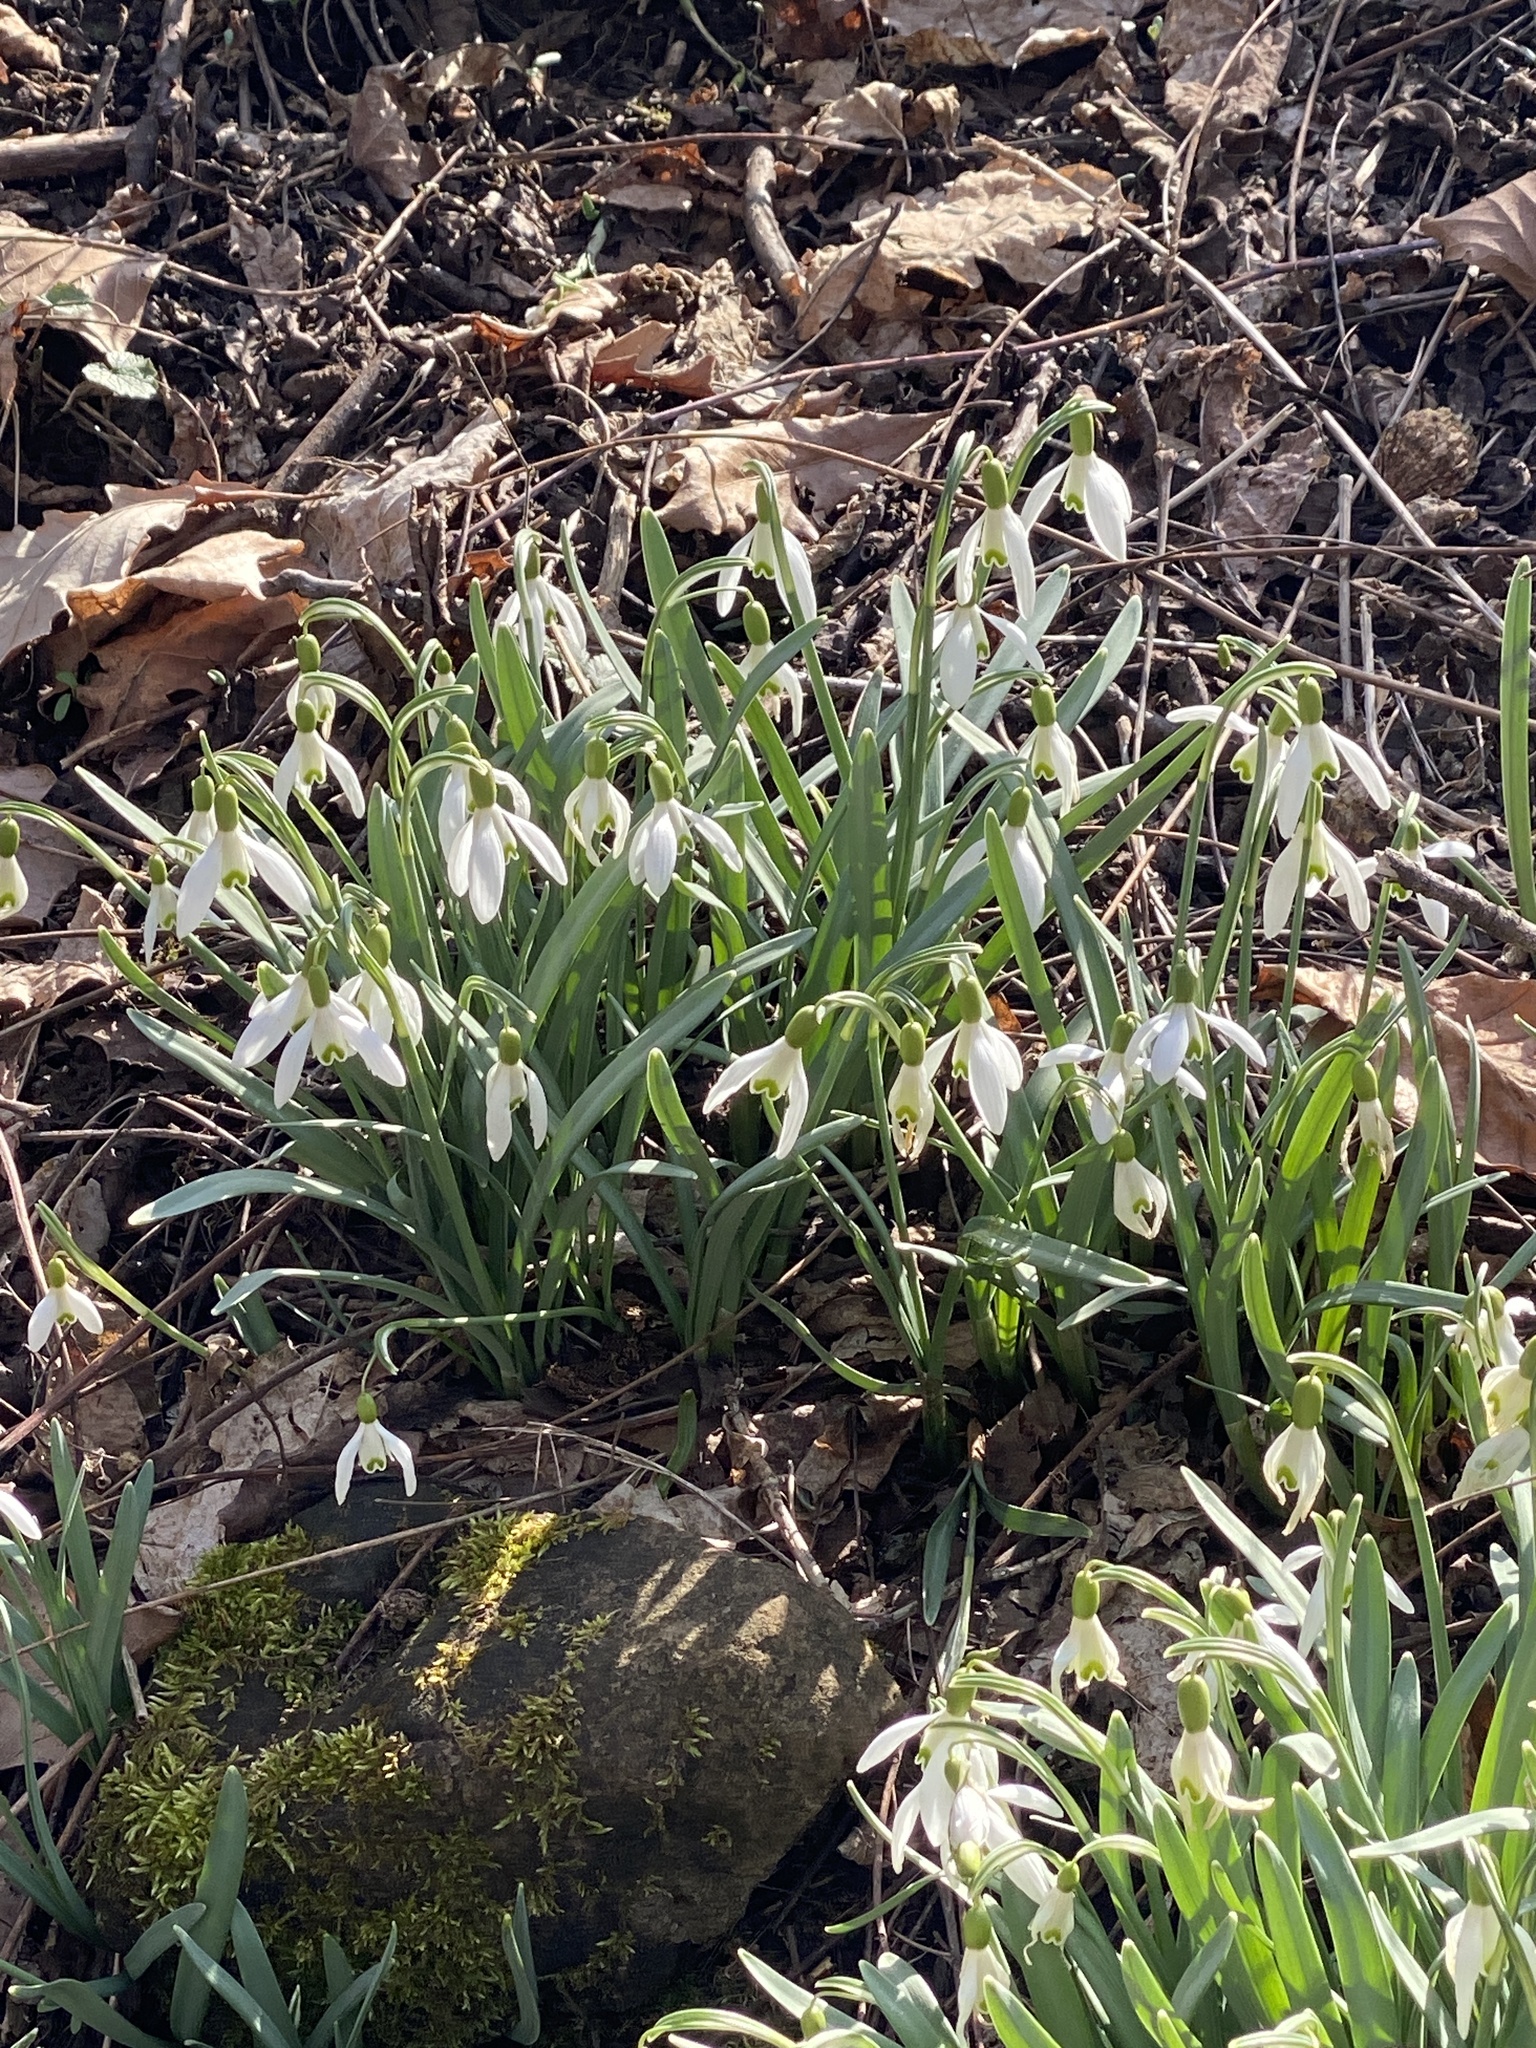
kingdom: Plantae
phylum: Tracheophyta
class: Liliopsida
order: Asparagales
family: Amaryllidaceae
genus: Galanthus
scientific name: Galanthus nivalis
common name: Snowdrop
